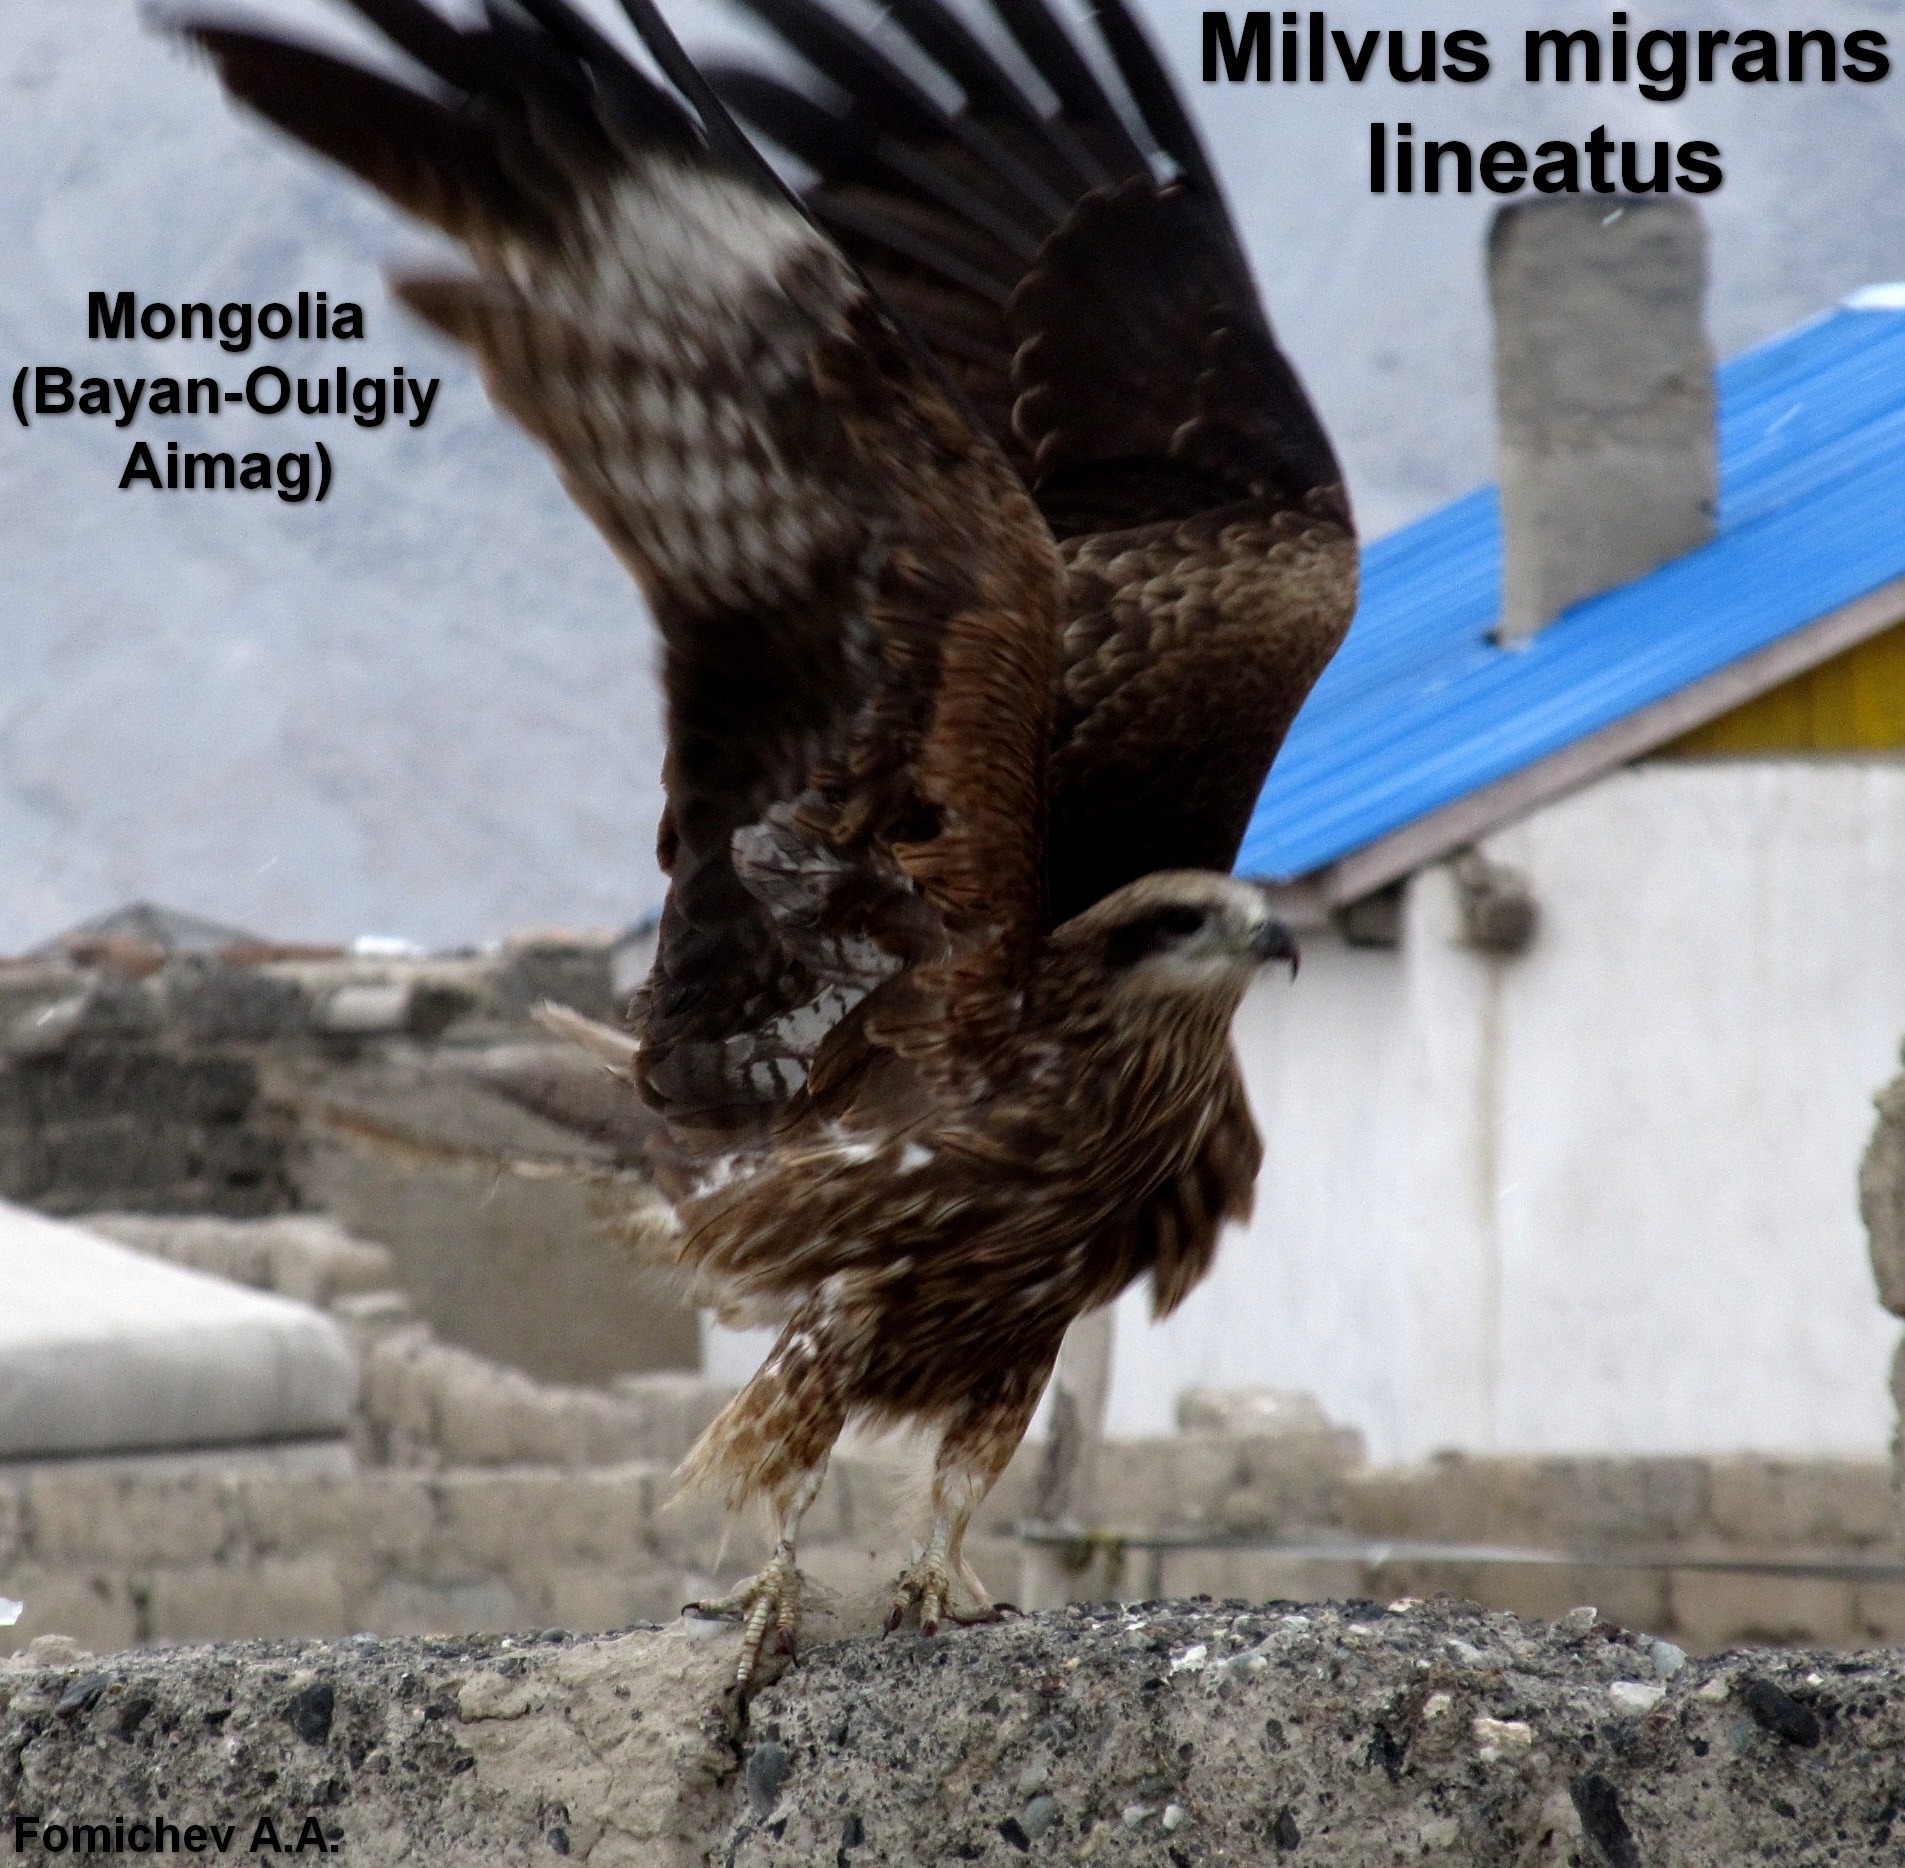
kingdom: Animalia
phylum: Chordata
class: Aves
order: Accipitriformes
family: Accipitridae
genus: Milvus
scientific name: Milvus migrans
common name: Black kite
